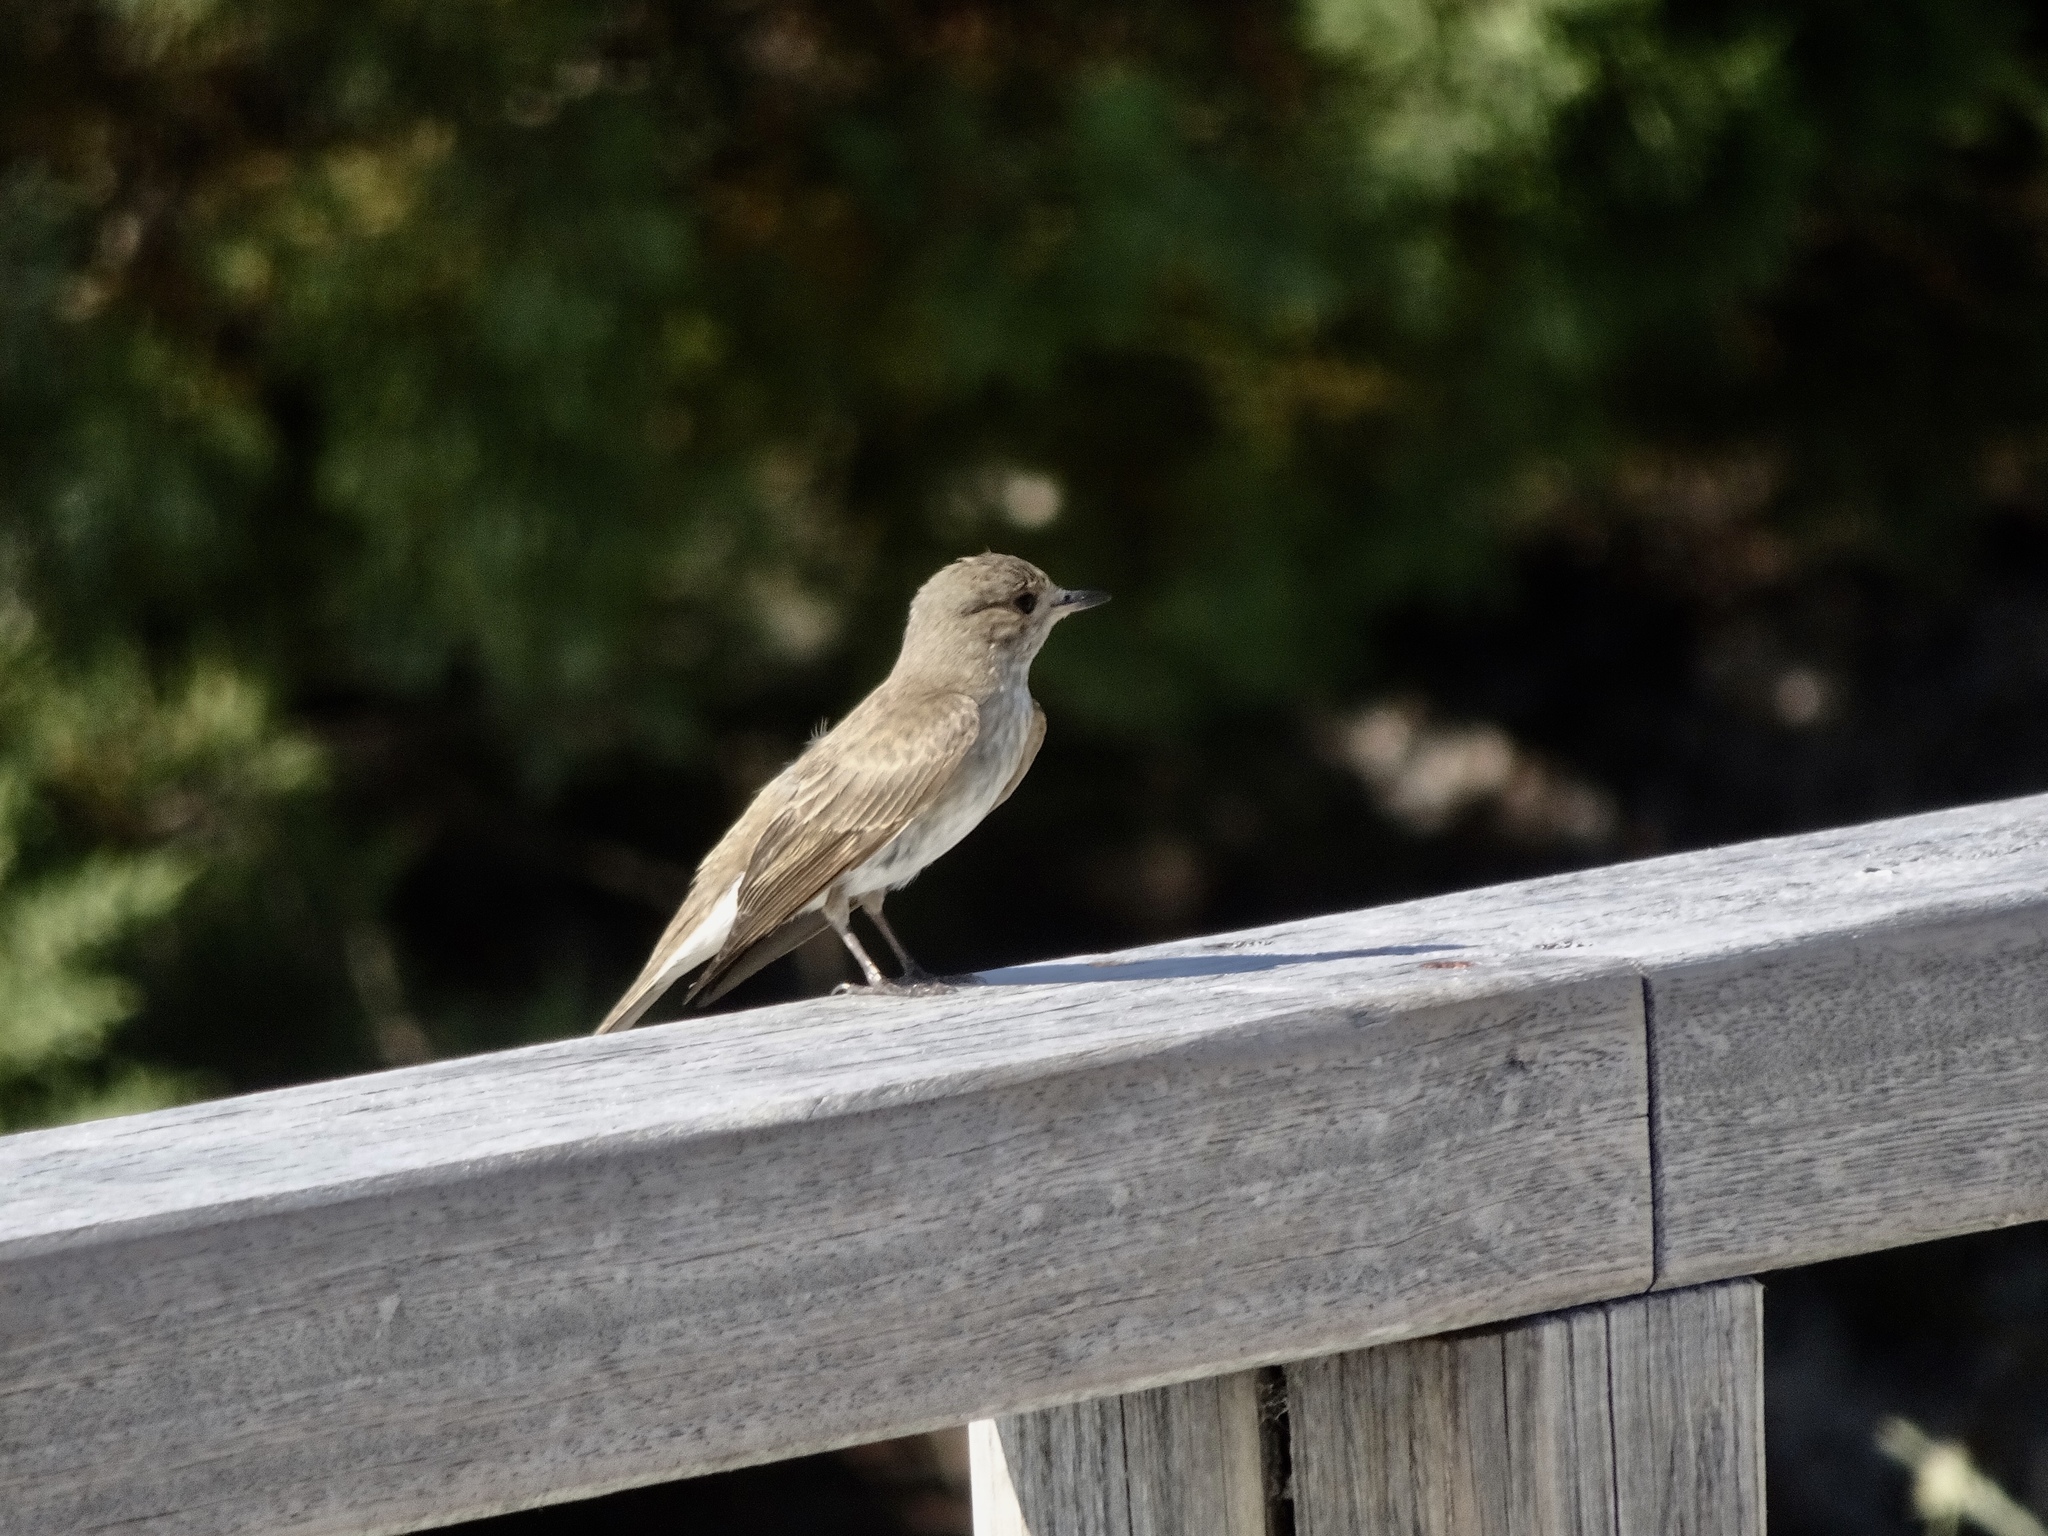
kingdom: Animalia
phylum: Chordata
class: Aves
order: Passeriformes
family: Muscicapidae
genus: Muscicapa
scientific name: Muscicapa striata
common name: Spotted flycatcher
